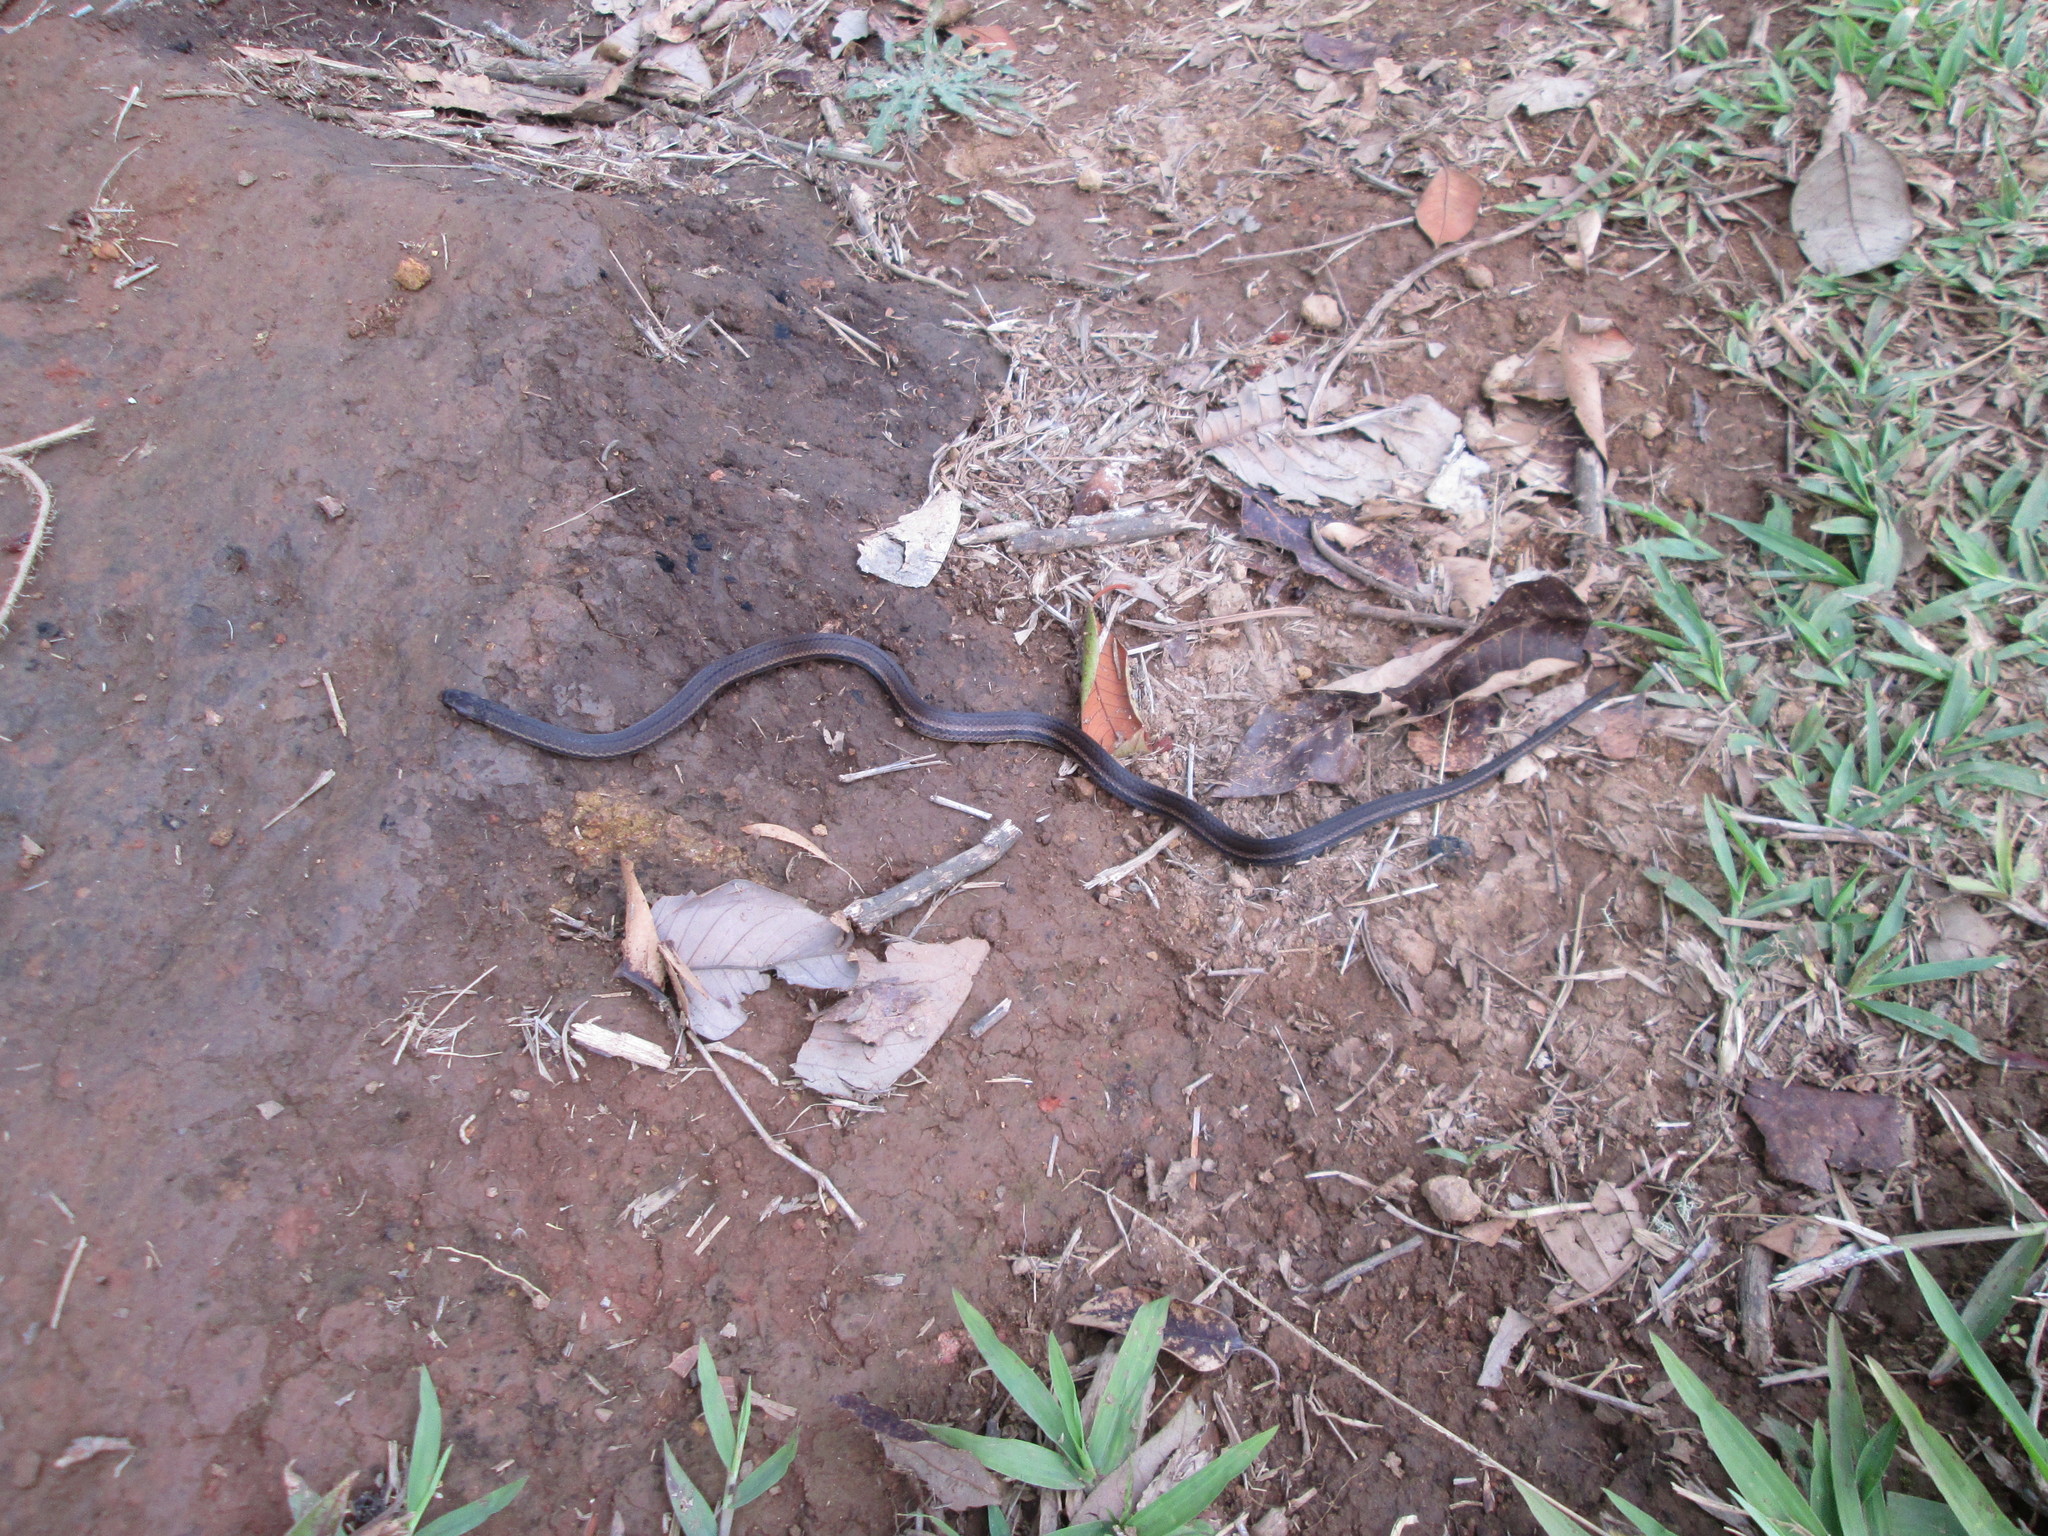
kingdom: Animalia
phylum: Chordata
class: Squamata
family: Colubridae
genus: Tantilla
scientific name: Tantilla melanocephala
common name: Black-headed snake
